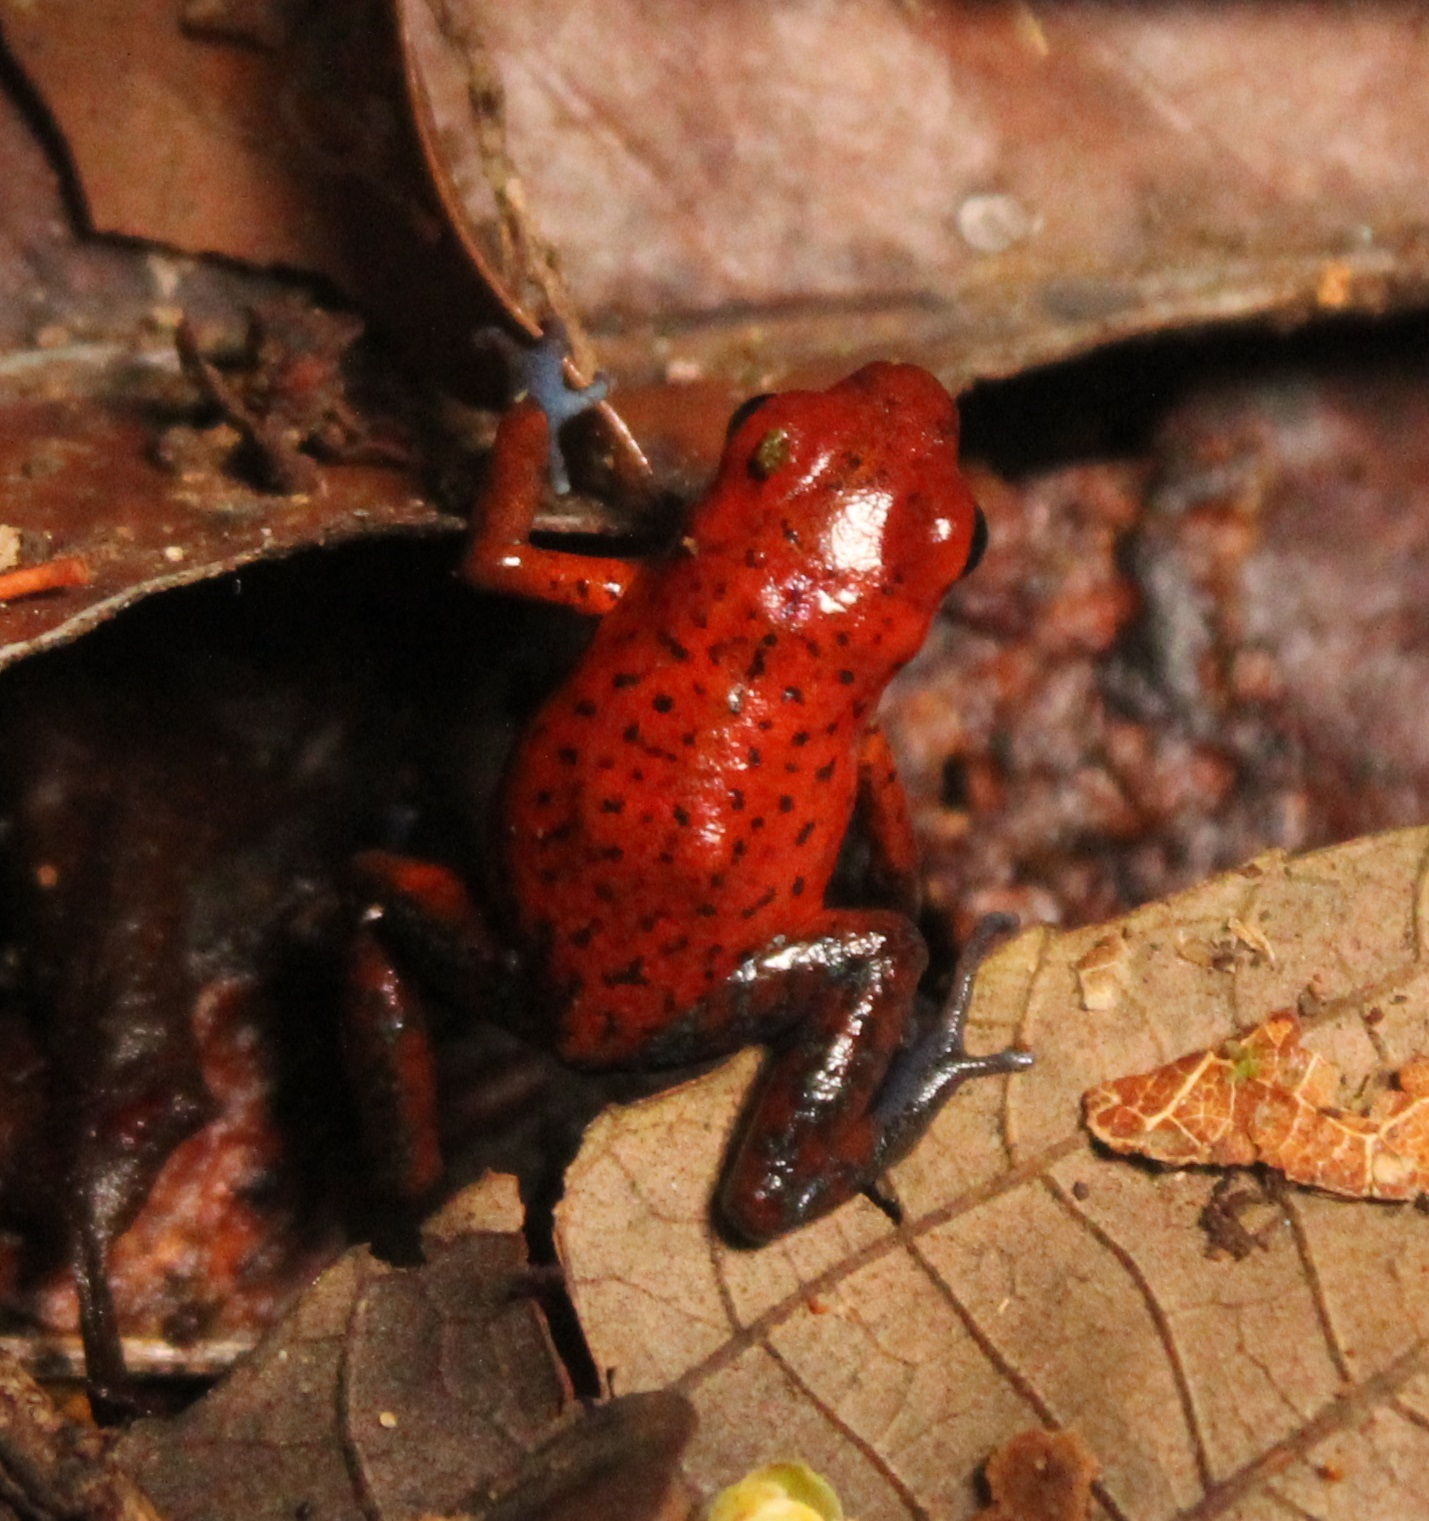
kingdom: Animalia
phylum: Chordata
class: Amphibia
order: Anura
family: Dendrobatidae
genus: Oophaga
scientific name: Oophaga pumilio
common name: Flaming poison frog
